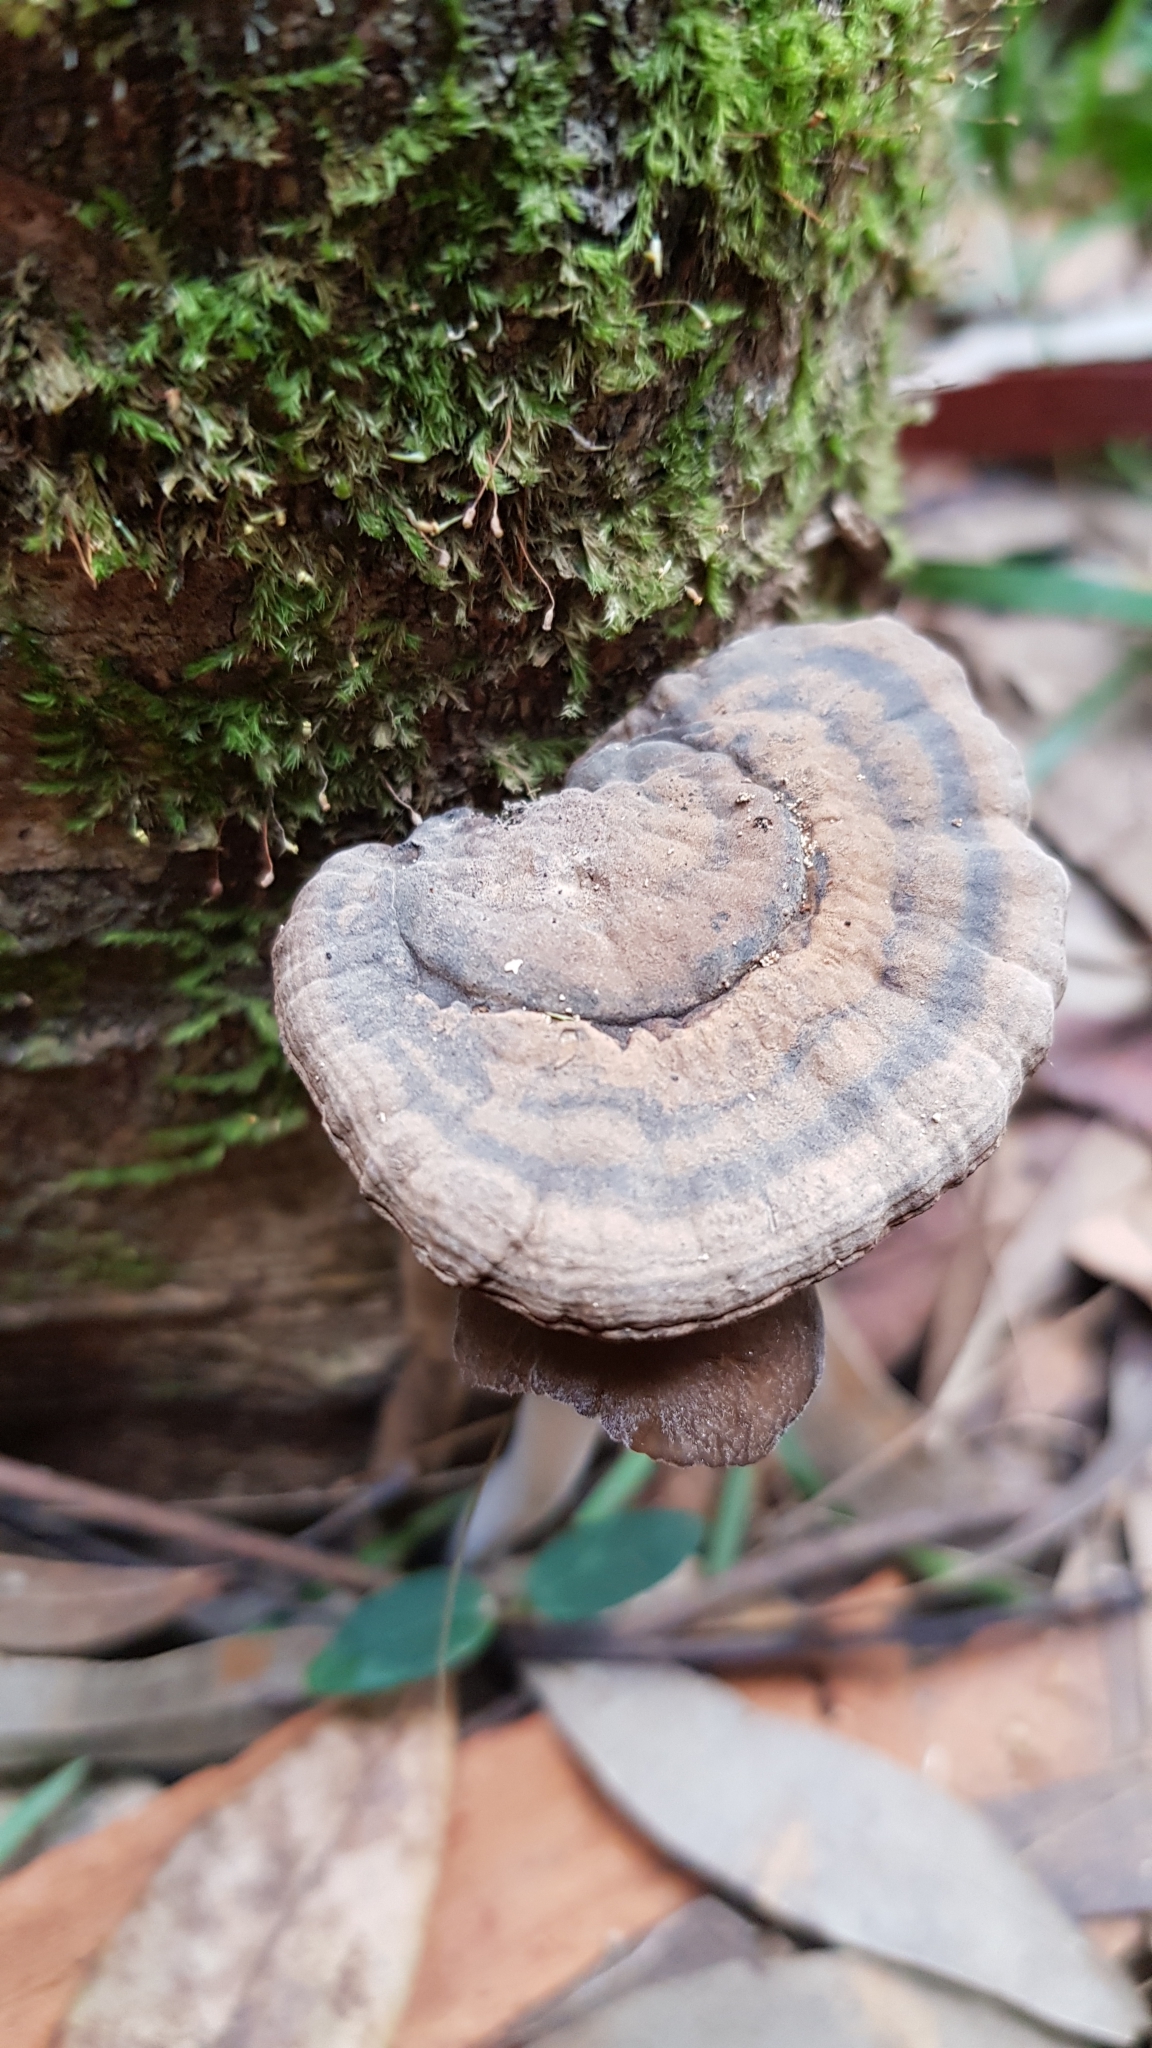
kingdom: Fungi
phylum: Basidiomycota
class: Agaricomycetes
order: Polyporales
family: Ganodermataceae
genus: Sanguinoderma
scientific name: Sanguinoderma rude
